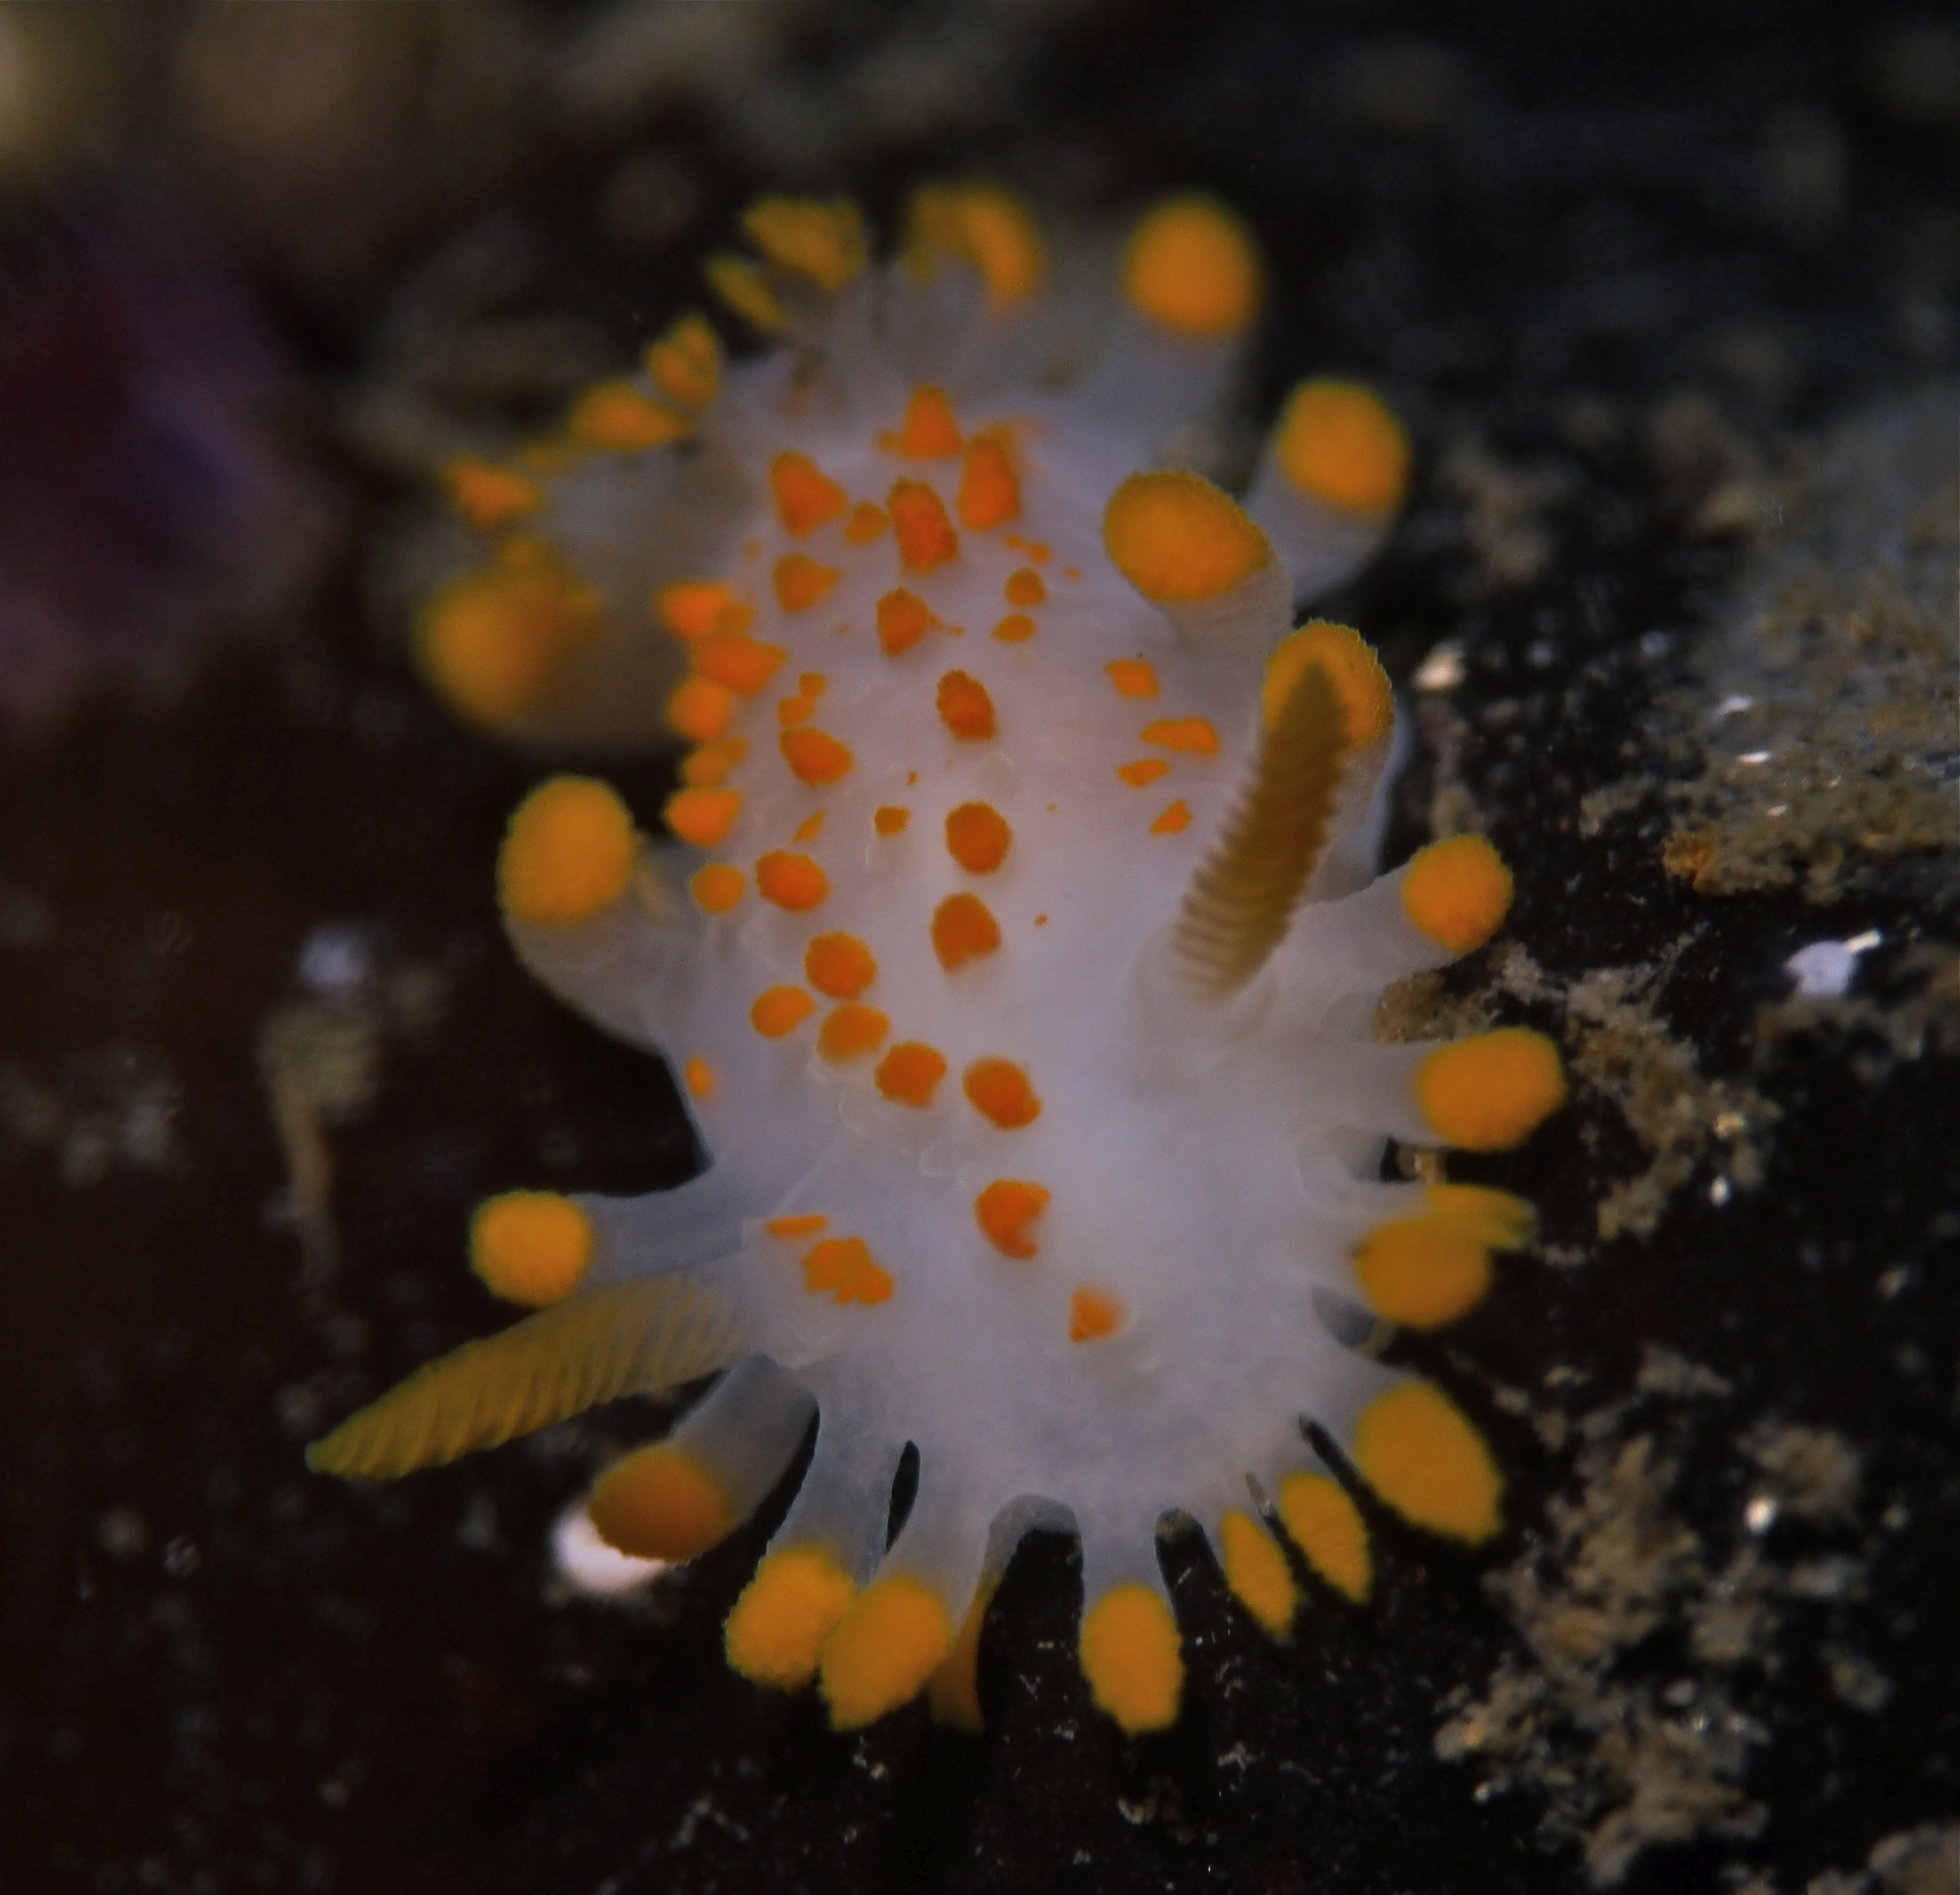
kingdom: Animalia
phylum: Mollusca
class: Gastropoda
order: Nudibranchia
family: Polyceridae
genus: Limacia
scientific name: Limacia clavigera
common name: Orange-clubbed sea slug
